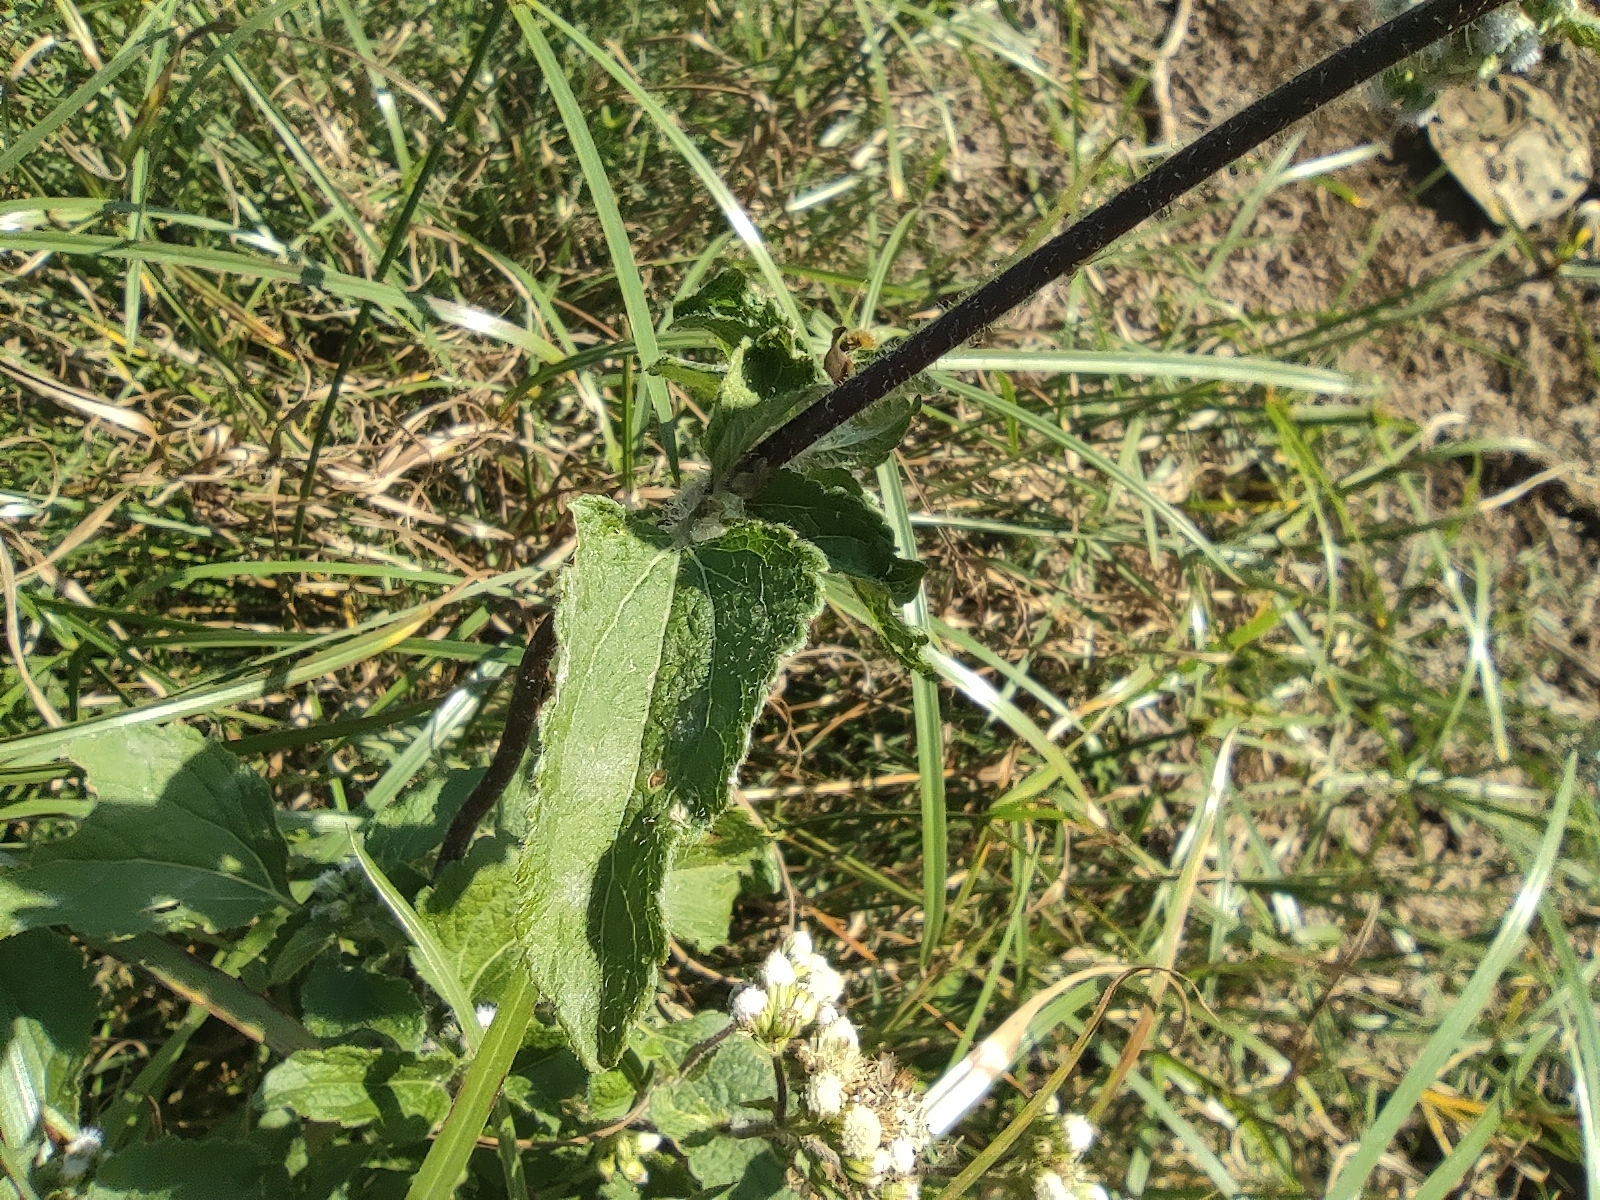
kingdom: Plantae
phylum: Tracheophyta
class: Magnoliopsida
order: Asterales
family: Asteraceae
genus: Ageratum
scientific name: Ageratum conyzoides
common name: Tropical whiteweed
